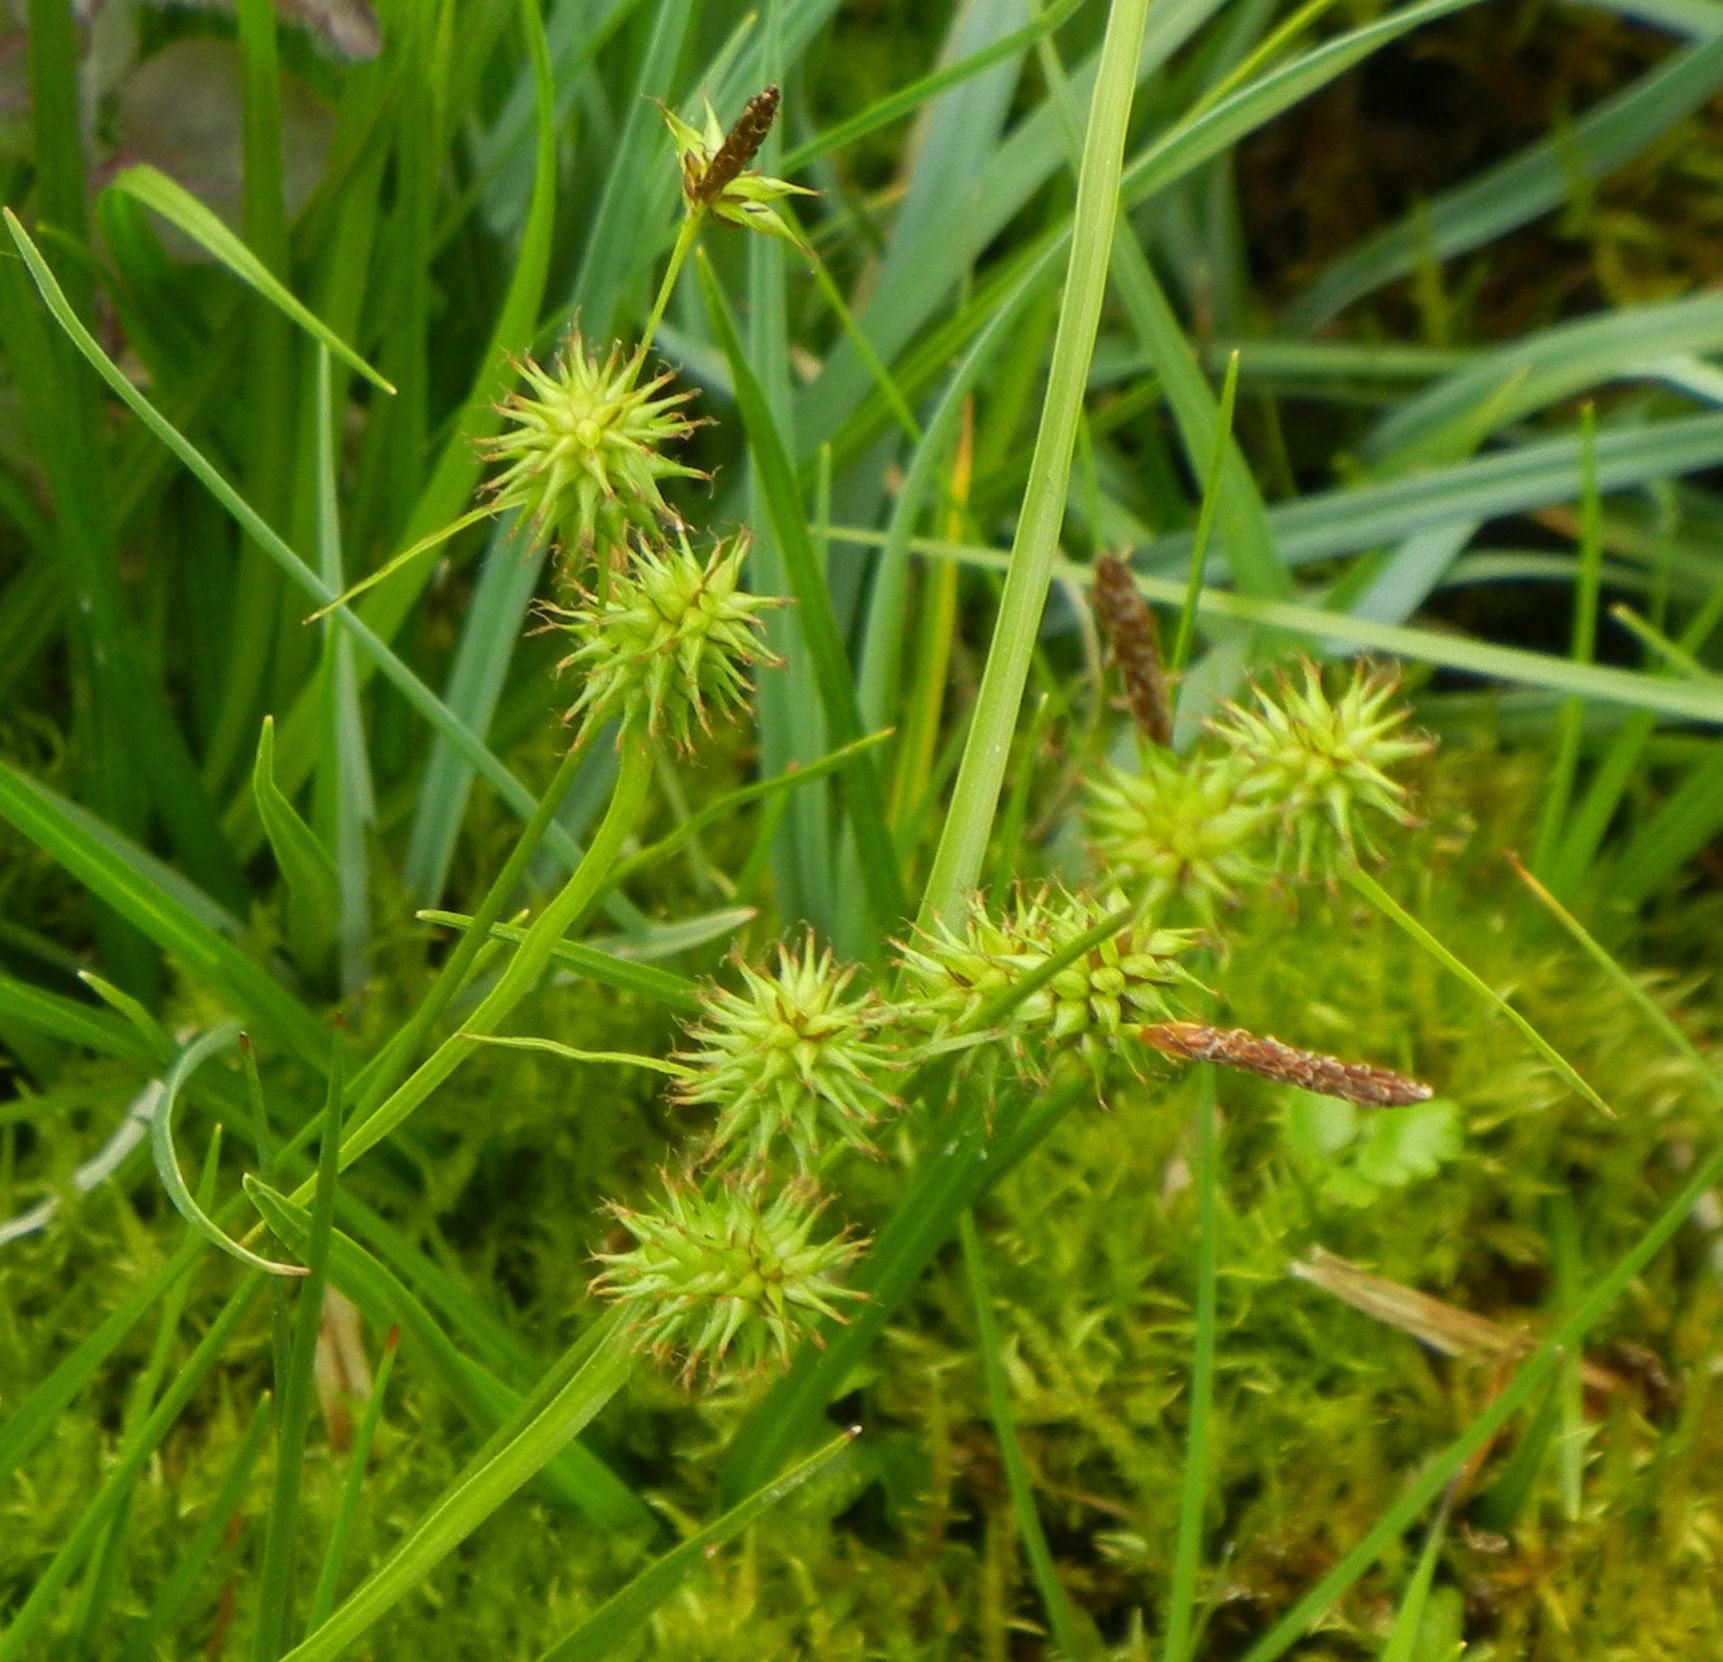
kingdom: Plantae
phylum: Tracheophyta
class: Liliopsida
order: Poales
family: Cyperaceae
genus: Carex
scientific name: Carex lepidocarpa
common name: Long-stalked yellow-sedge
